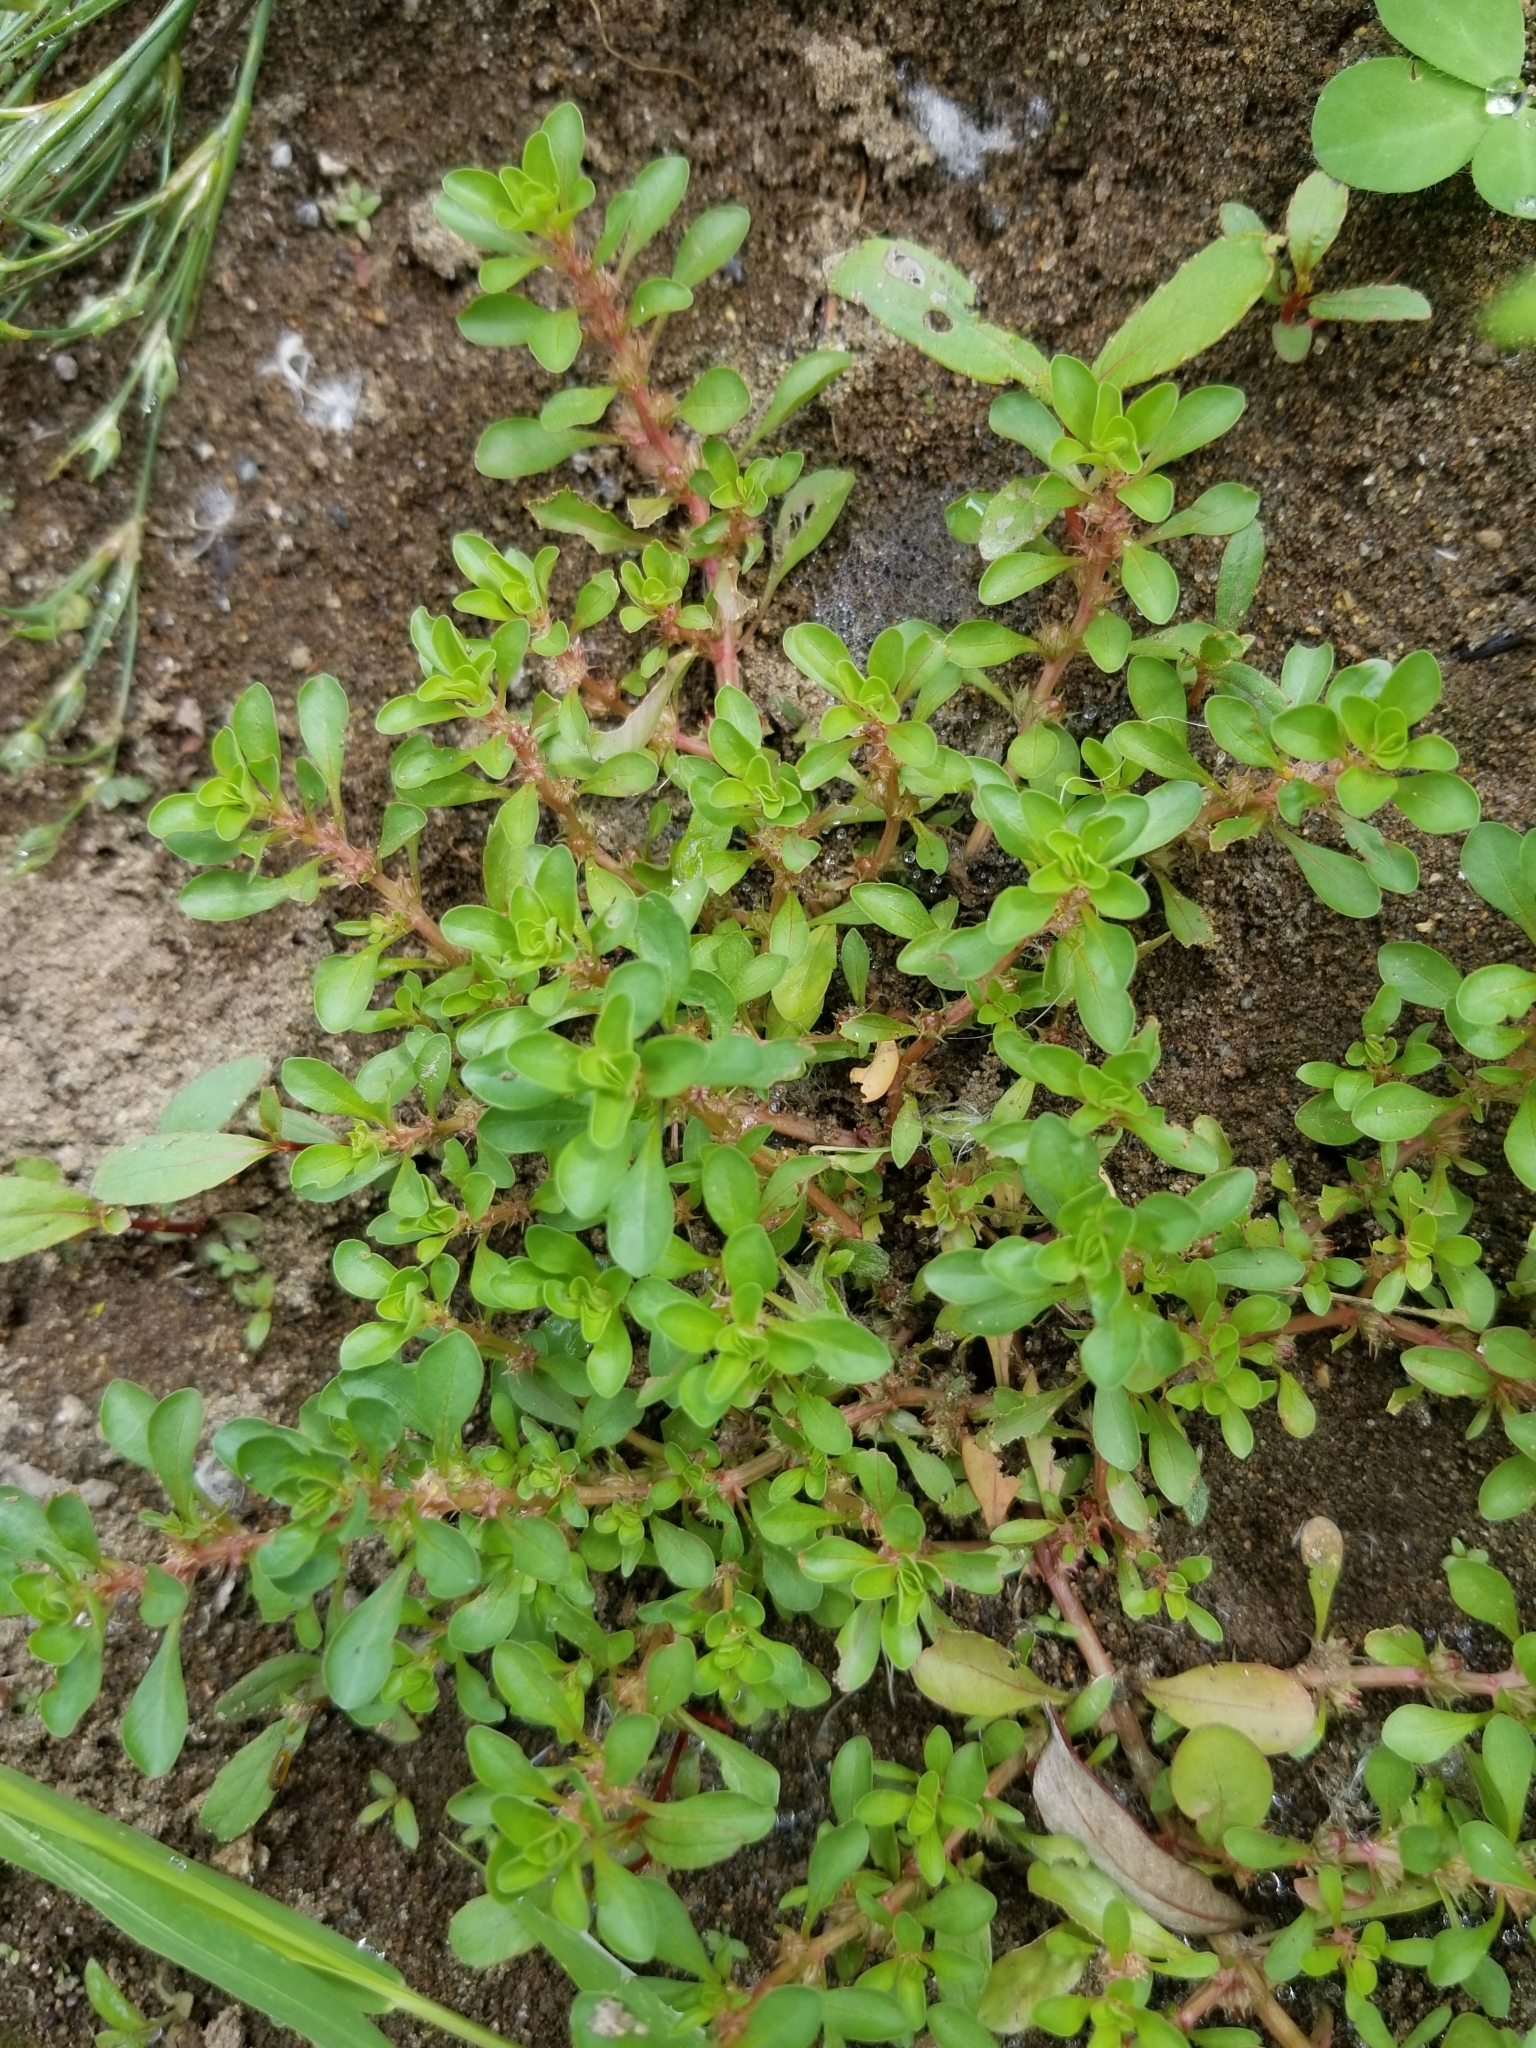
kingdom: Plantae
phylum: Tracheophyta
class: Magnoliopsida
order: Myrtales
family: Lythraceae
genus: Lythrum
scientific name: Lythrum portula
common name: Water purslane
